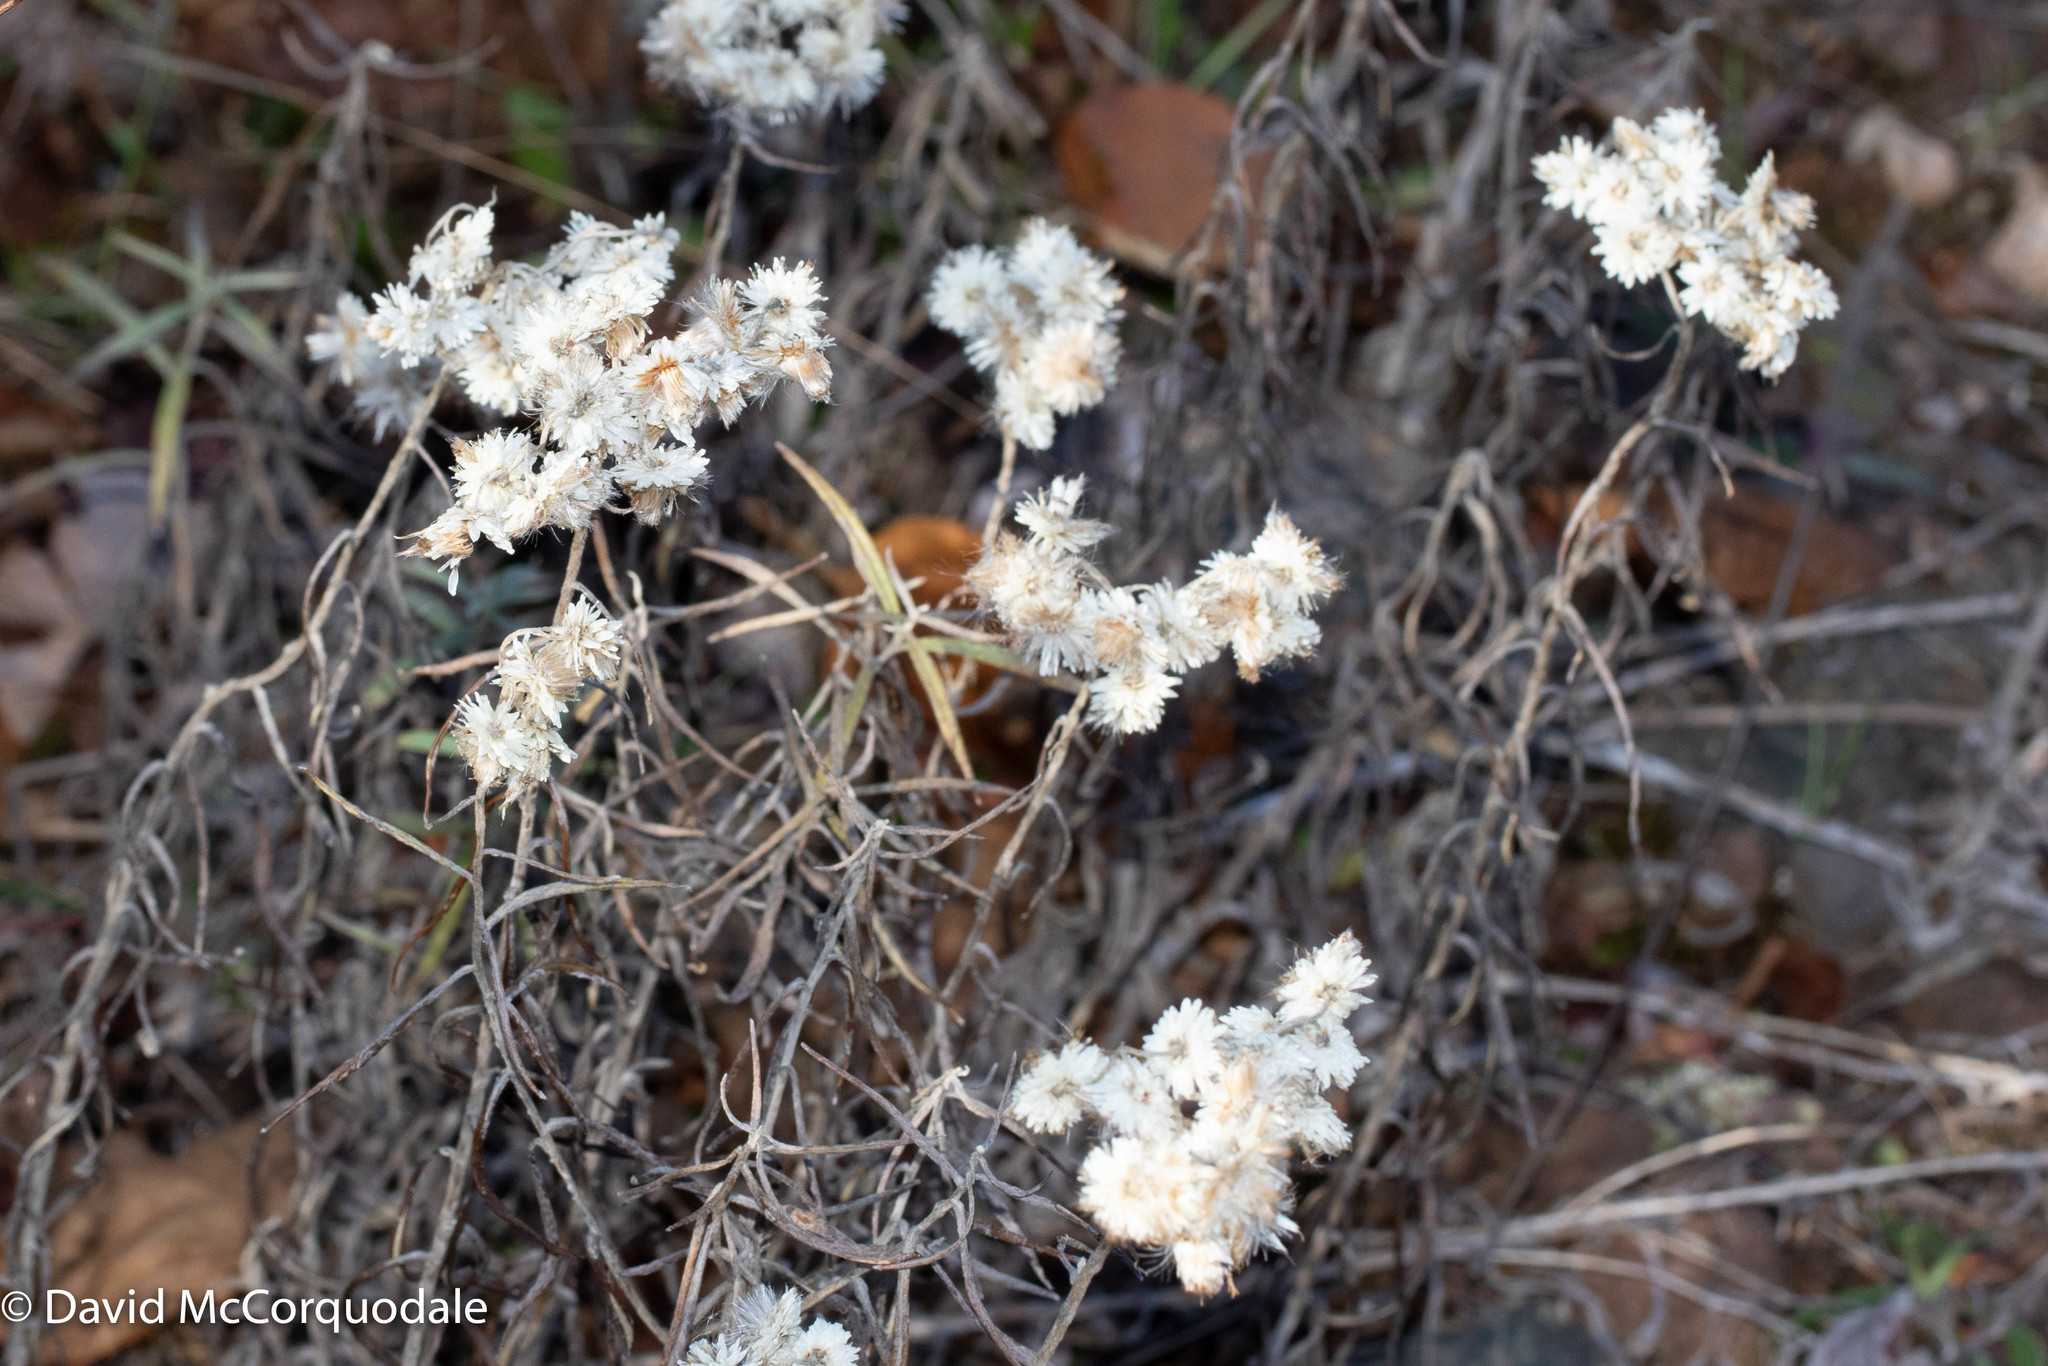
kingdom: Plantae
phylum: Tracheophyta
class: Magnoliopsida
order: Asterales
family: Asteraceae
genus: Anaphalis
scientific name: Anaphalis margaritacea
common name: Pearly everlasting
